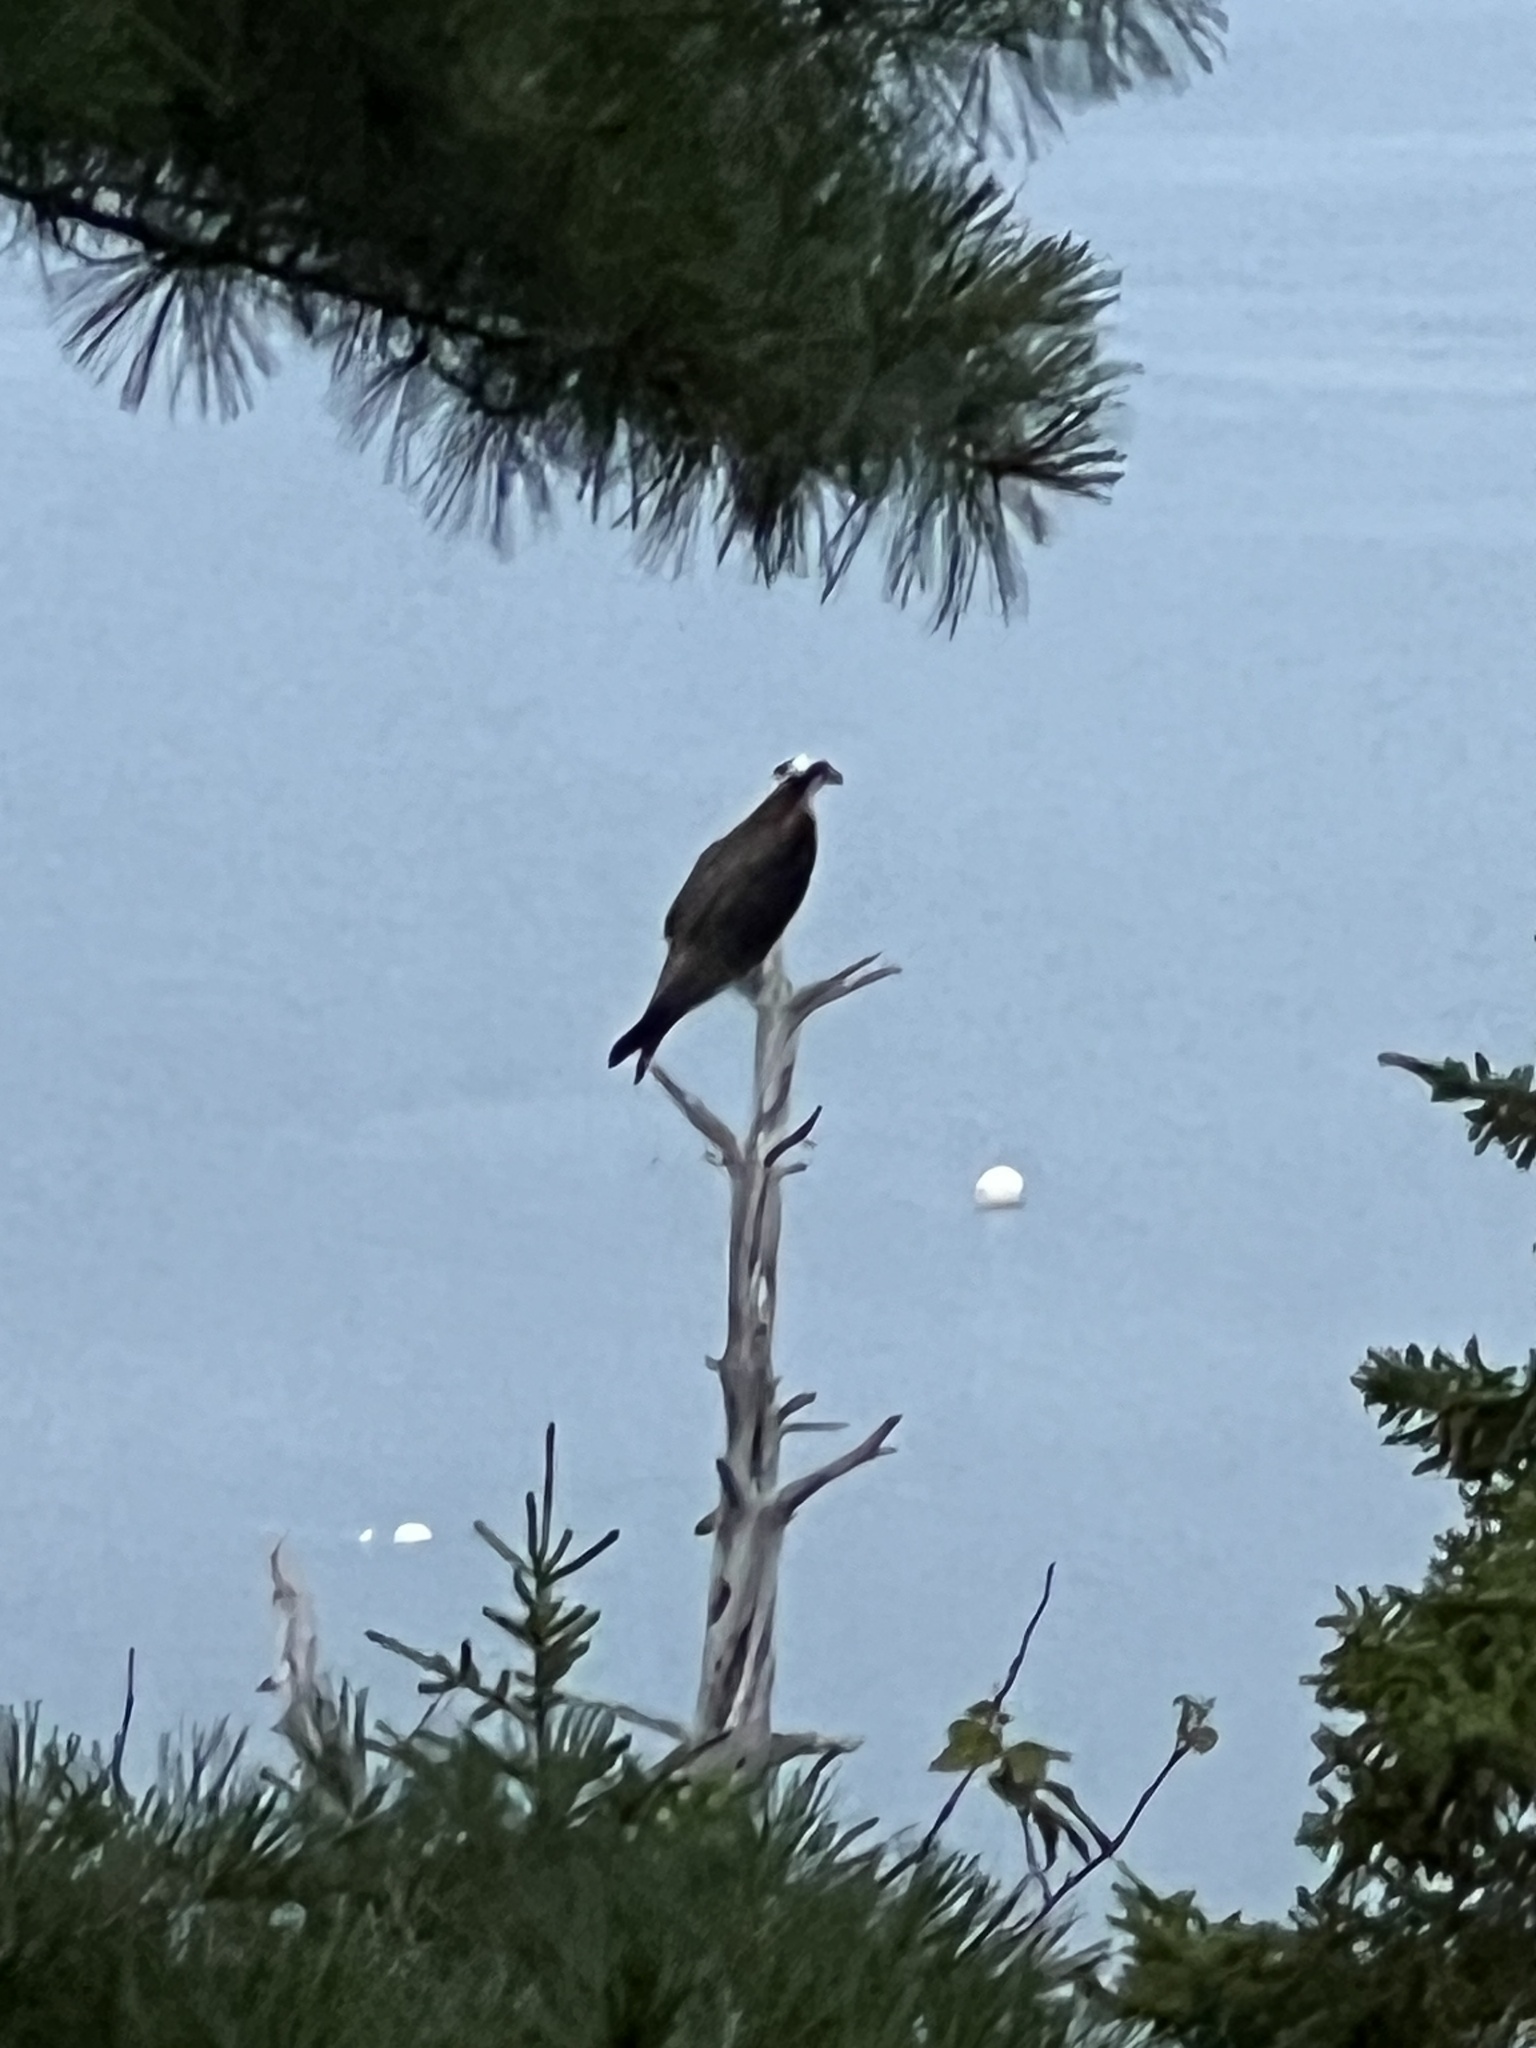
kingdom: Animalia
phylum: Chordata
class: Aves
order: Accipitriformes
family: Pandionidae
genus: Pandion
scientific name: Pandion haliaetus
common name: Osprey
